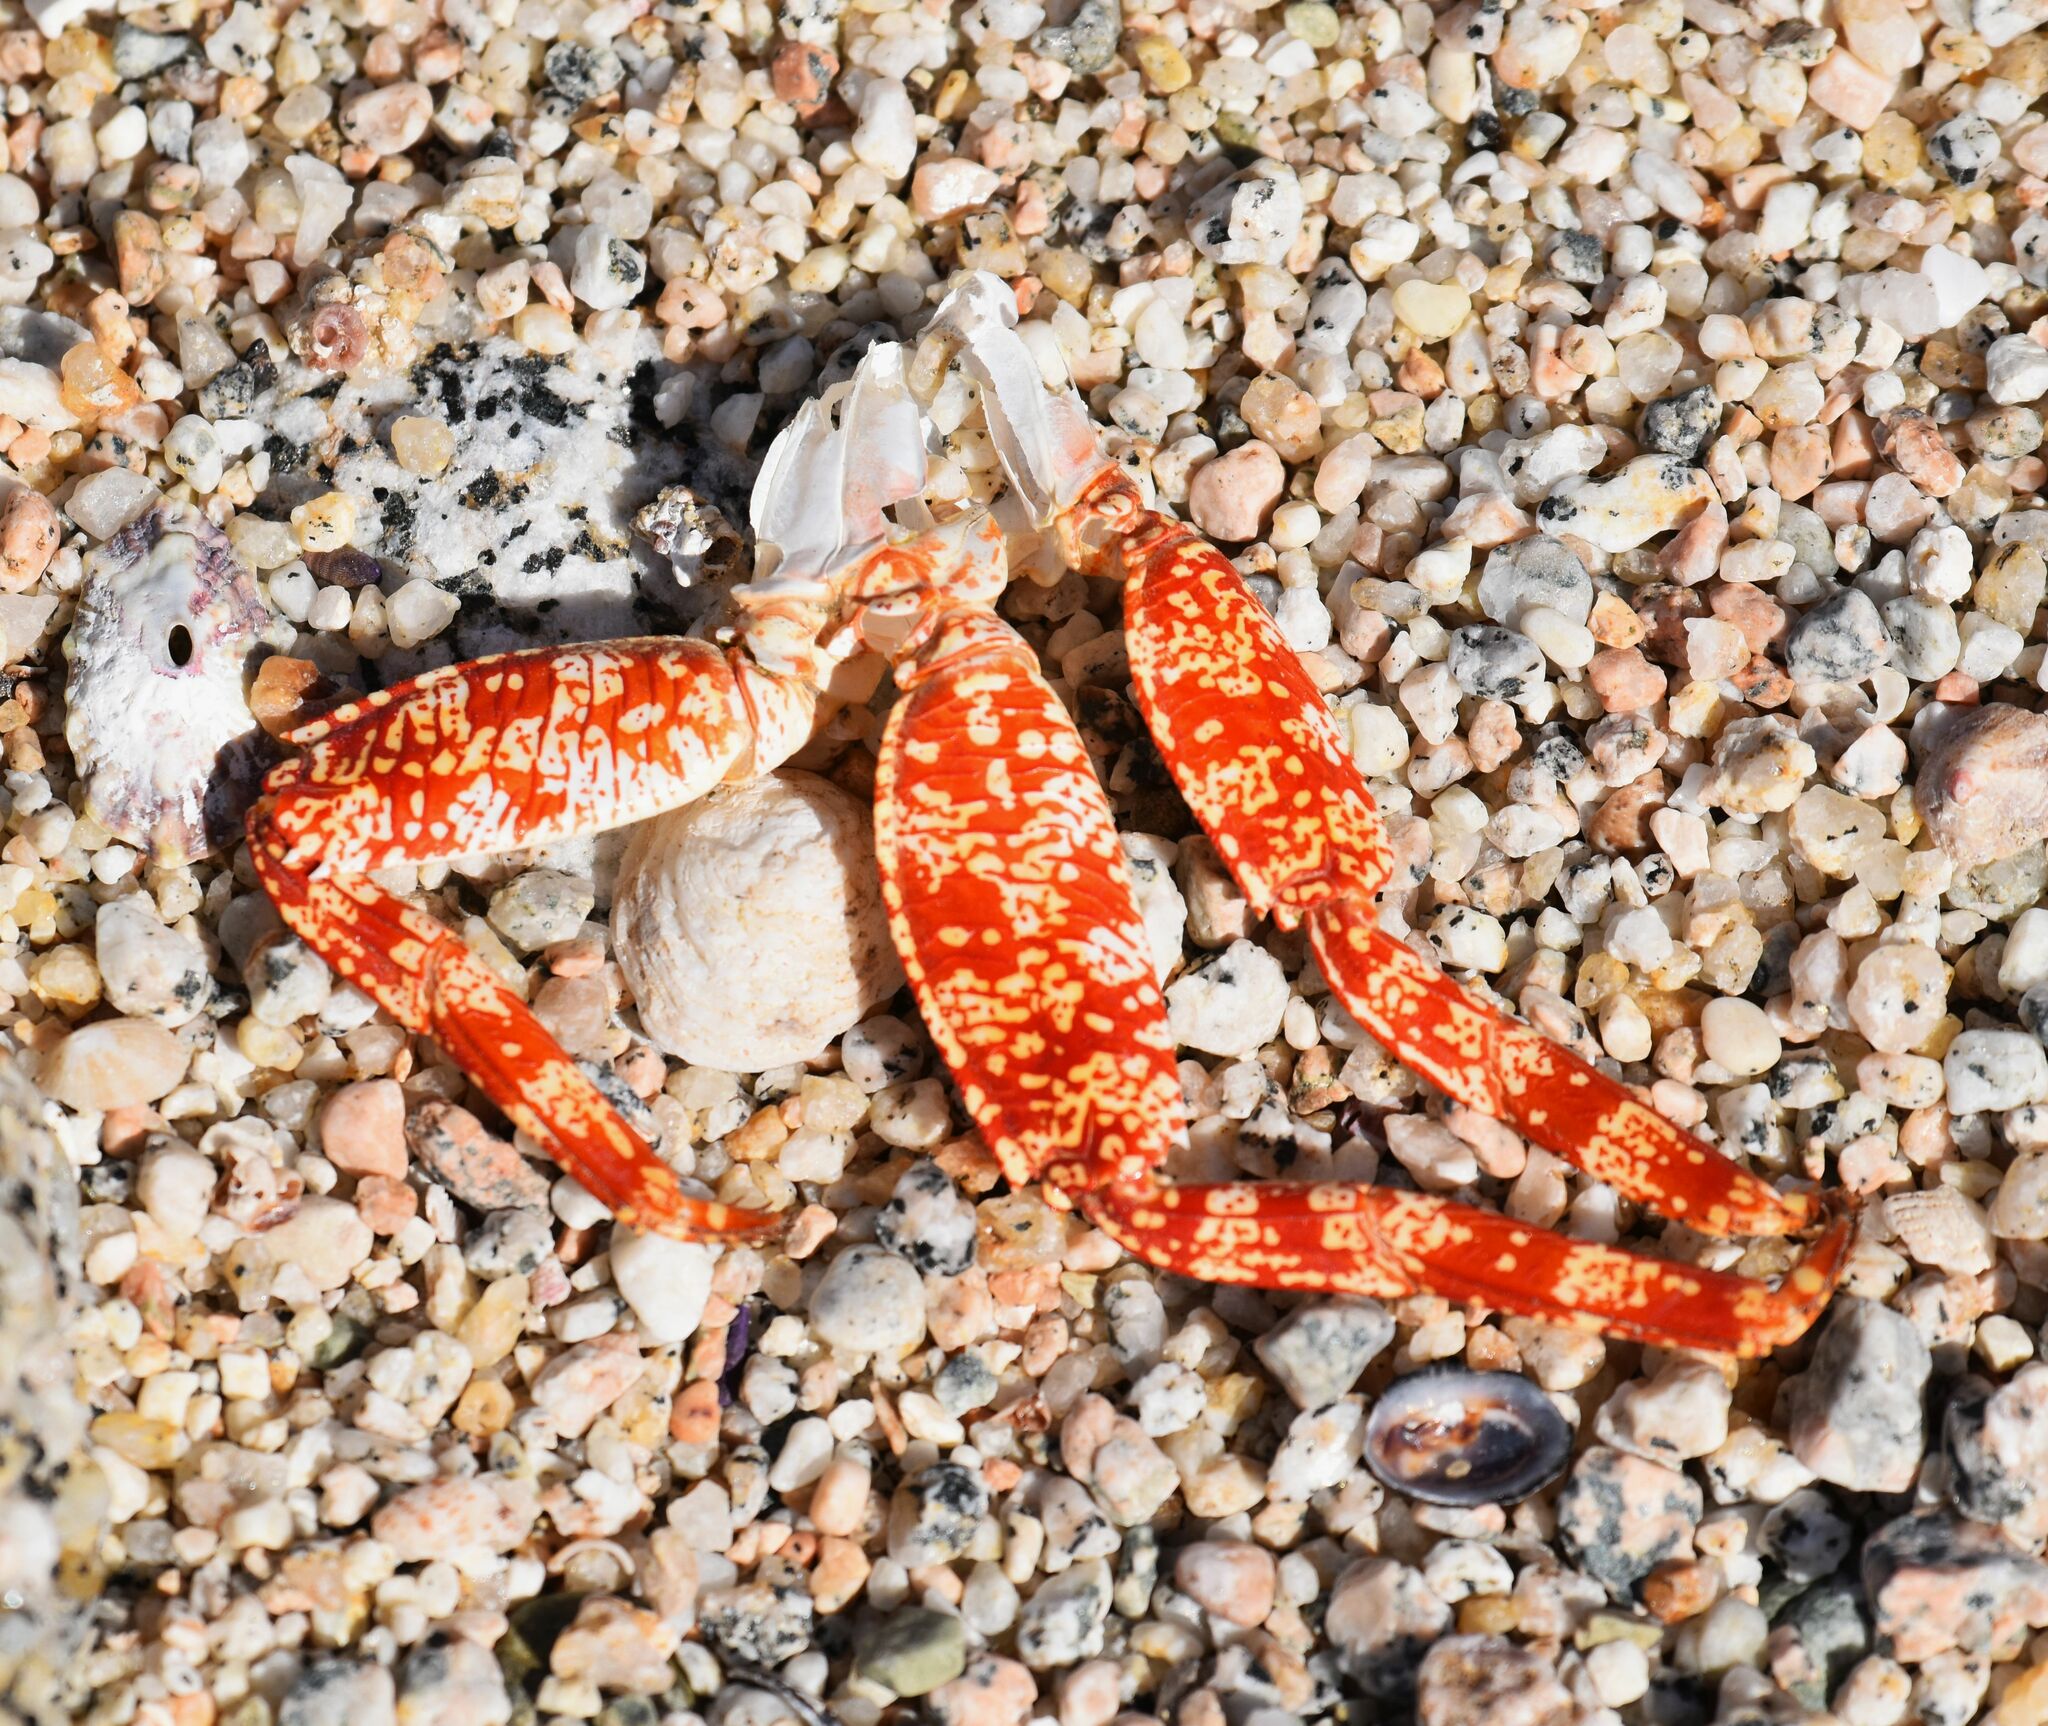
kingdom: Animalia
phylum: Arthropoda
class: Malacostraca
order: Decapoda
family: Grapsidae
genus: Grapsus
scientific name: Grapsus grapsus
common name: Sally lightfoot
